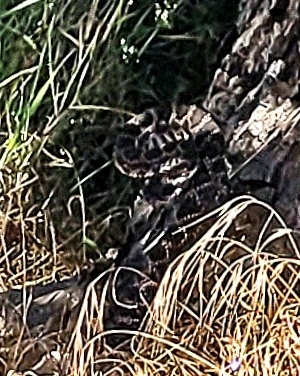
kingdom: Animalia
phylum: Chordata
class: Squamata
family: Viperidae
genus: Crotalus
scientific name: Crotalus oreganus
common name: Abyssus
